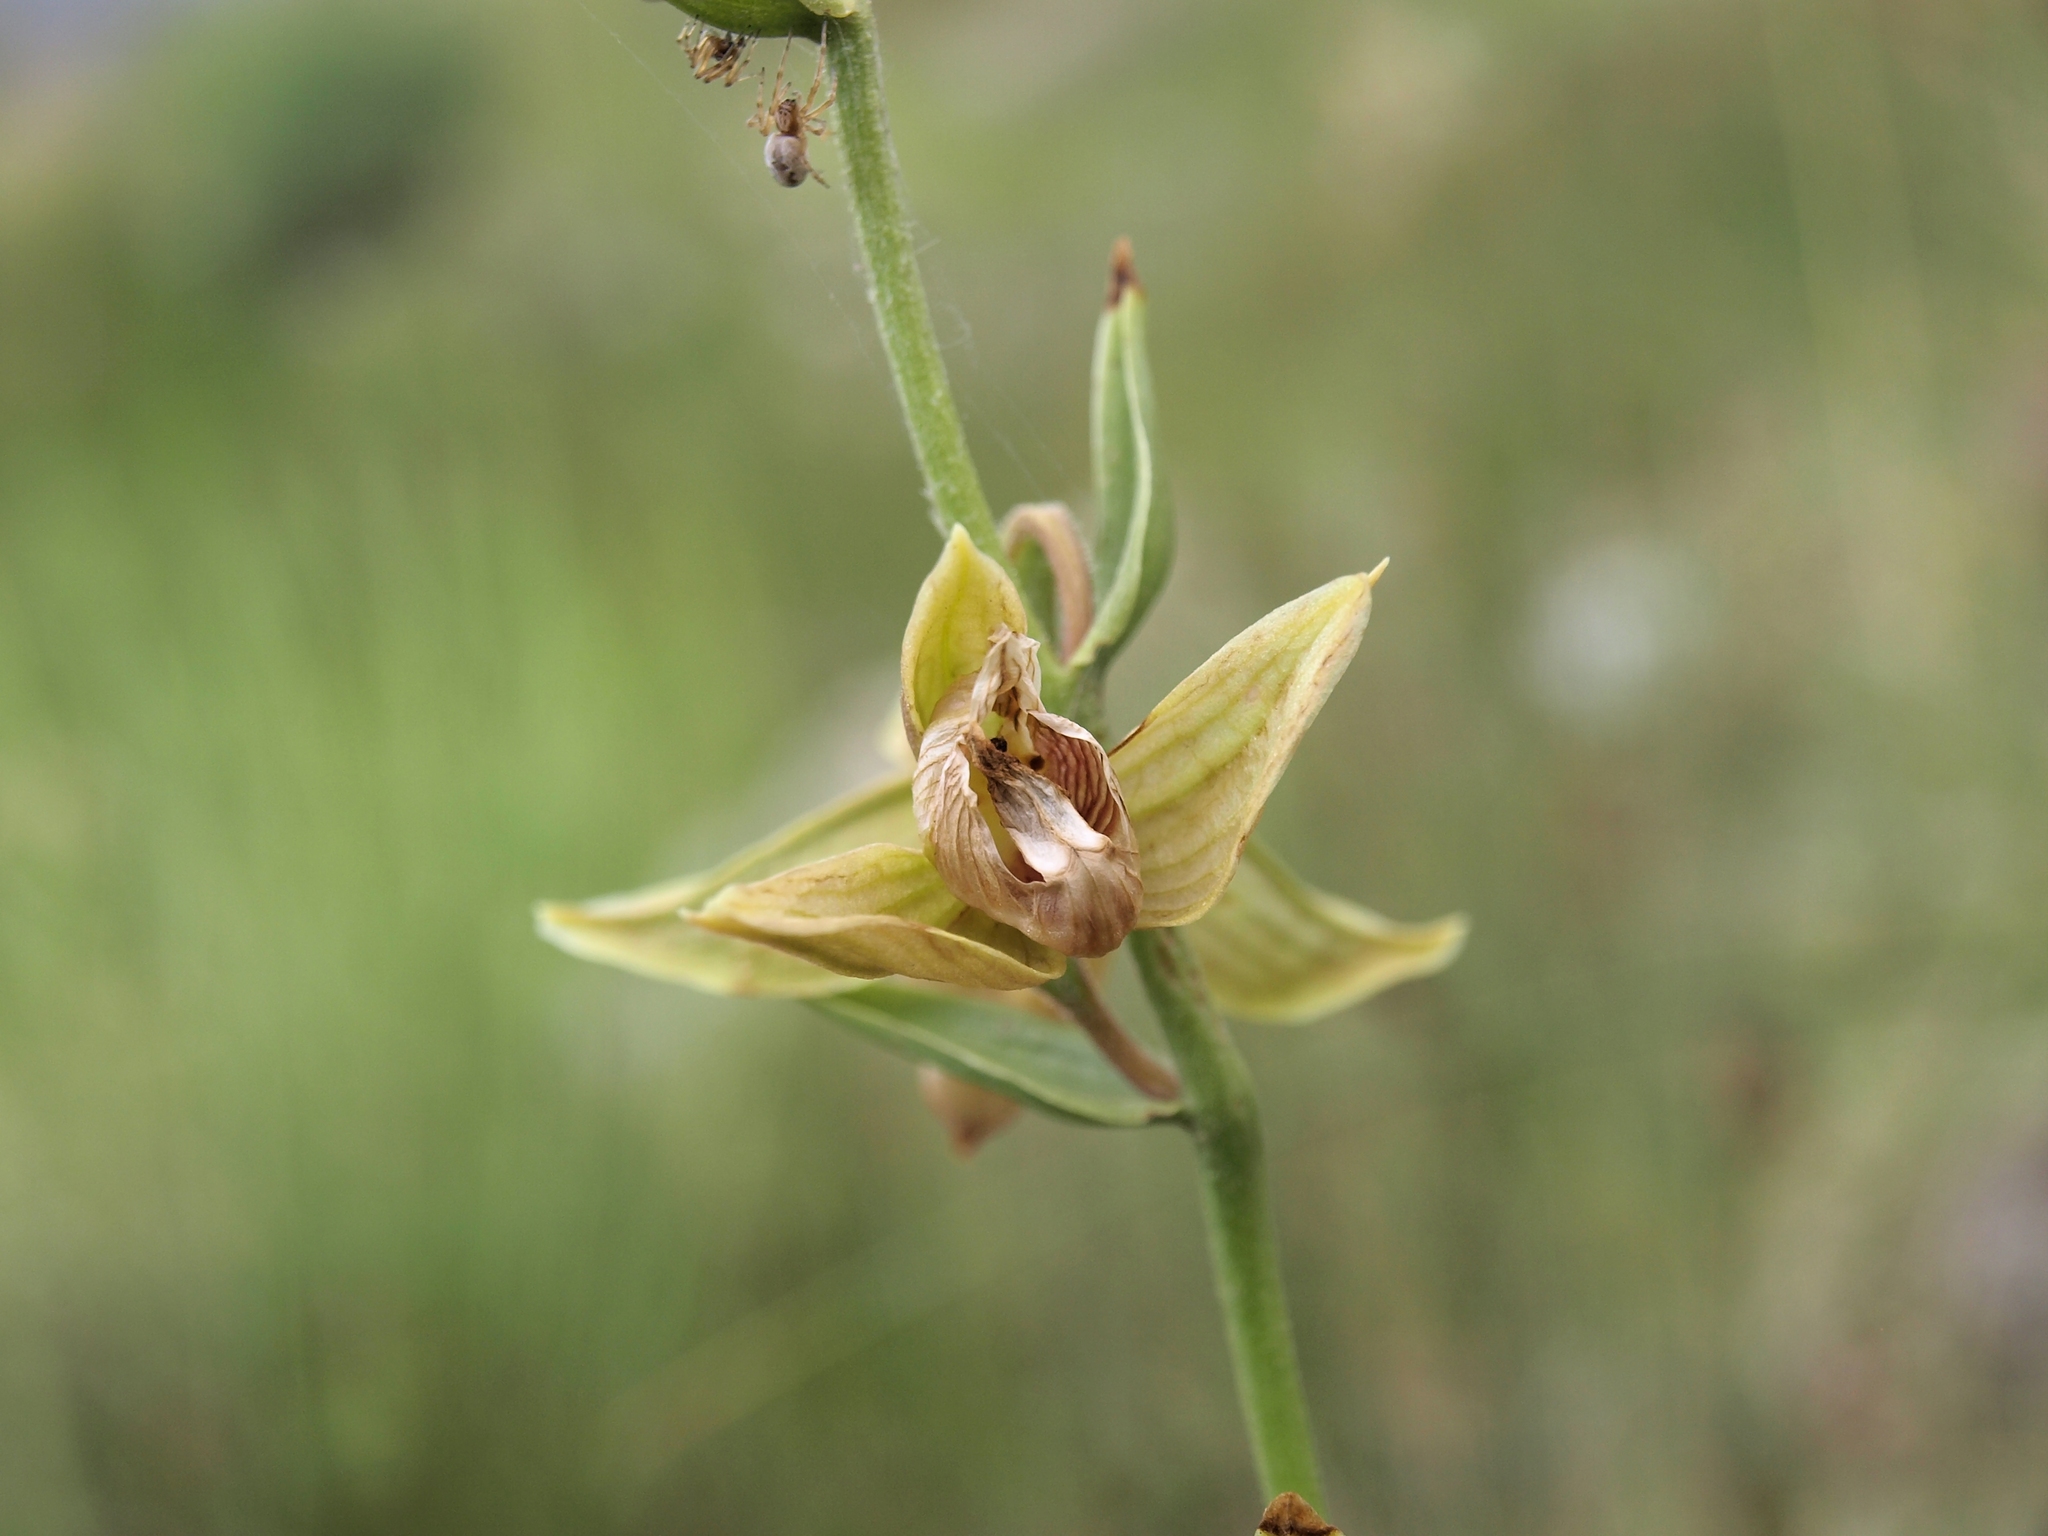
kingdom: Plantae
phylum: Tracheophyta
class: Liliopsida
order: Asparagales
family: Orchidaceae
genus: Epipactis
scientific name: Epipactis gigantea
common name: Chatterbox
